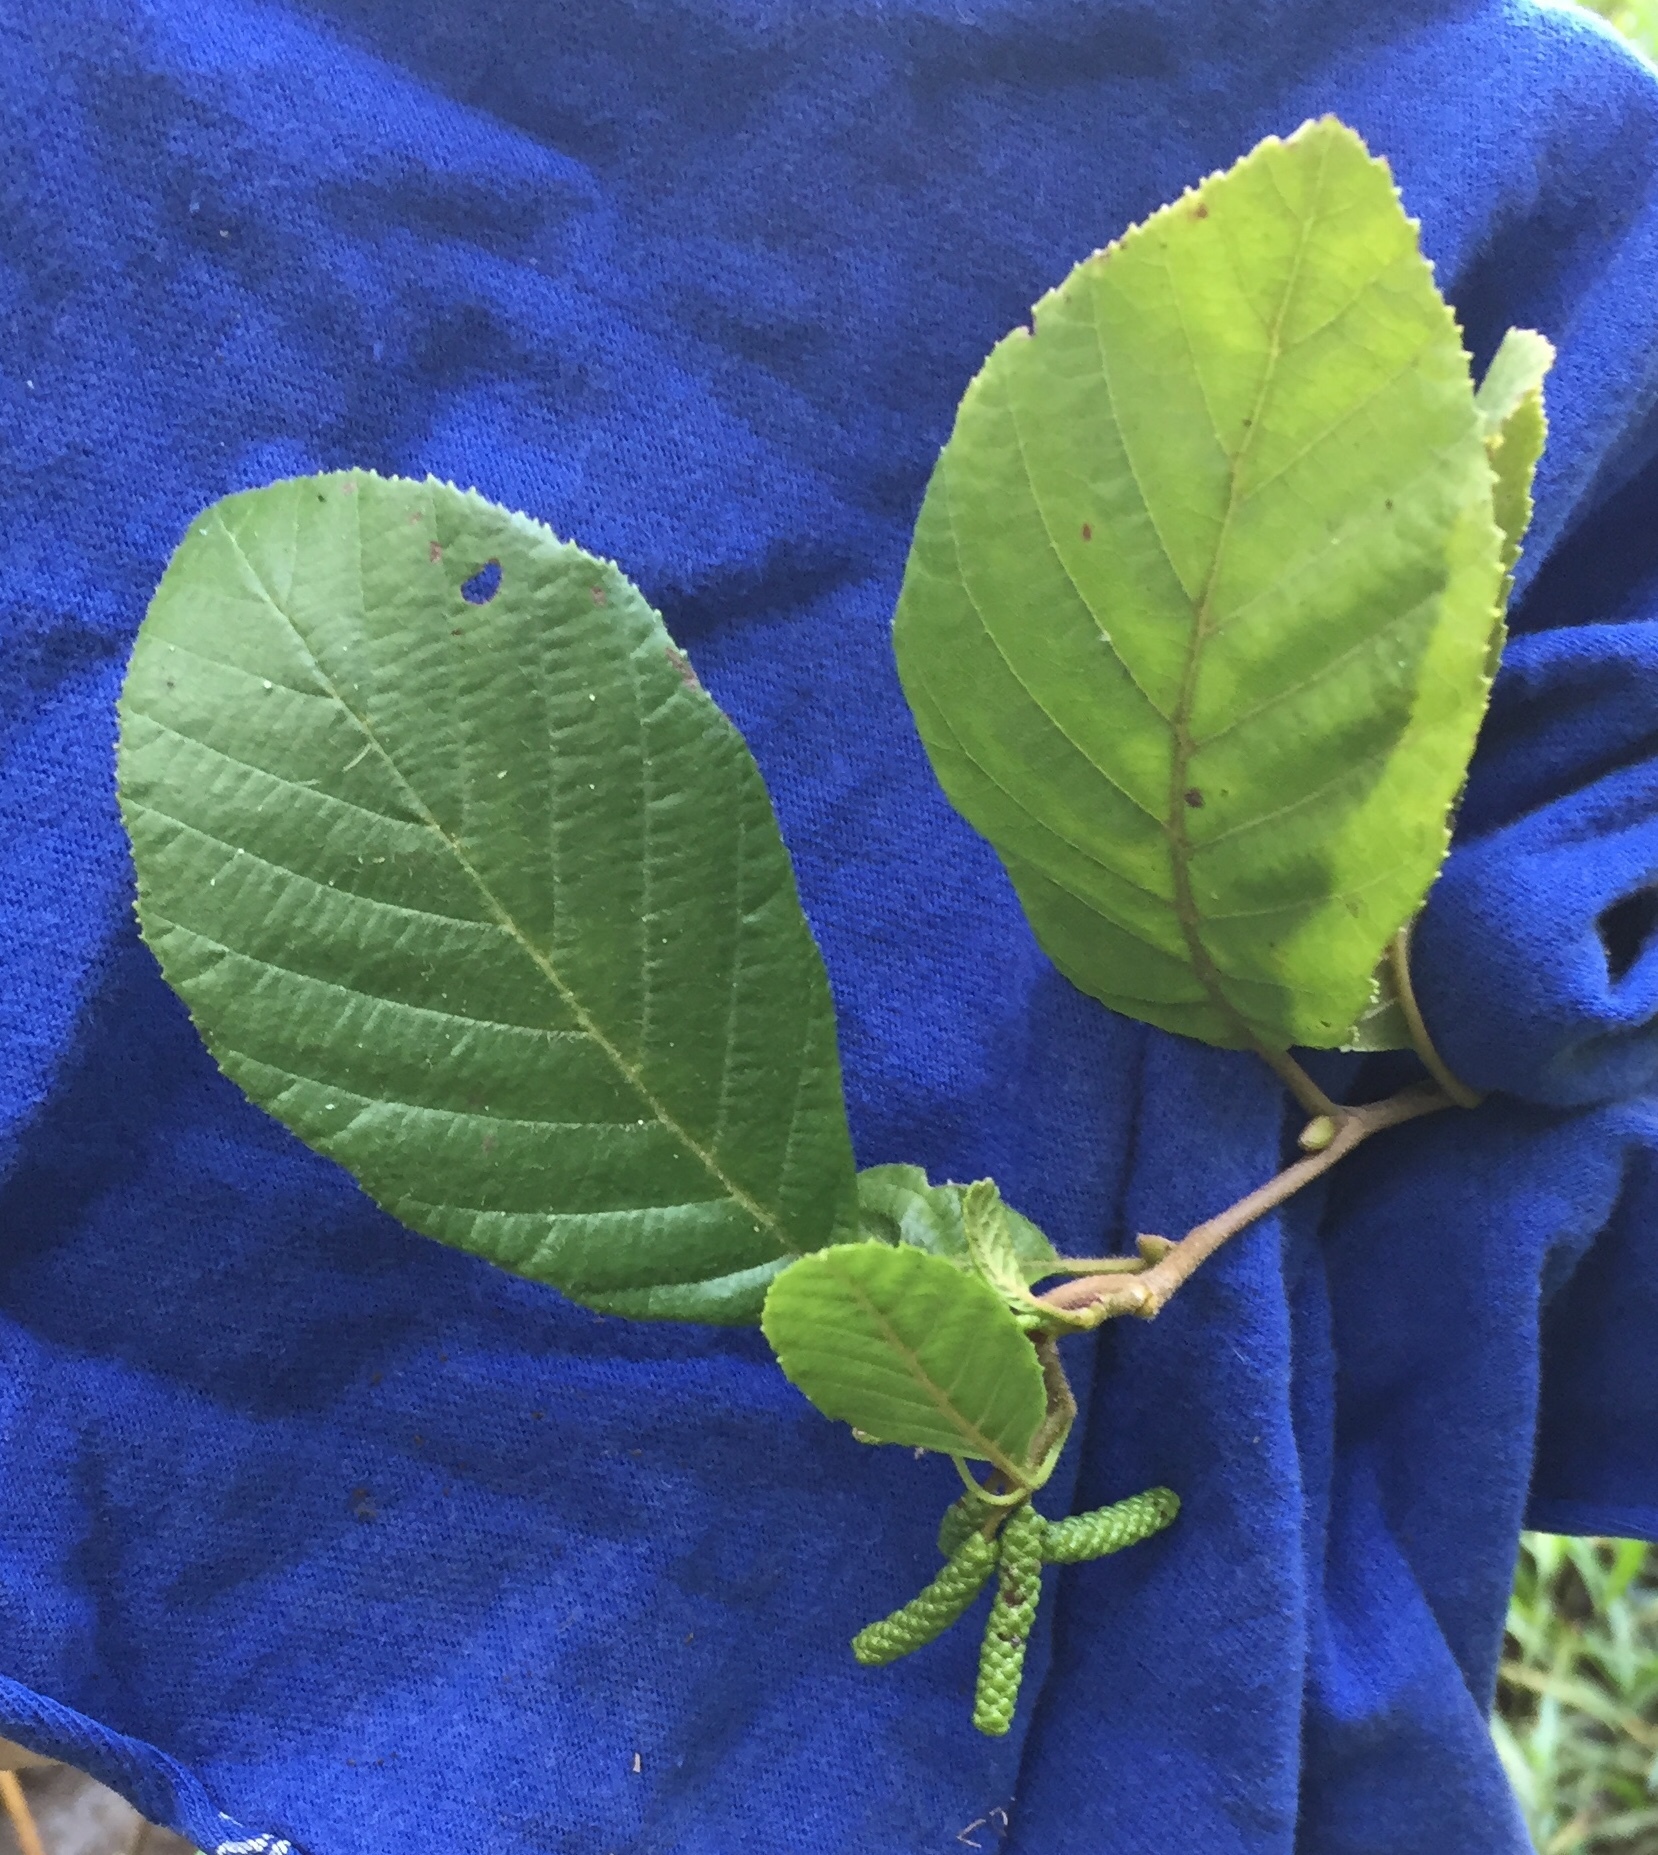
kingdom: Plantae
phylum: Tracheophyta
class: Magnoliopsida
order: Fagales
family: Betulaceae
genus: Alnus
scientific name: Alnus serrulata
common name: Hazel alder
